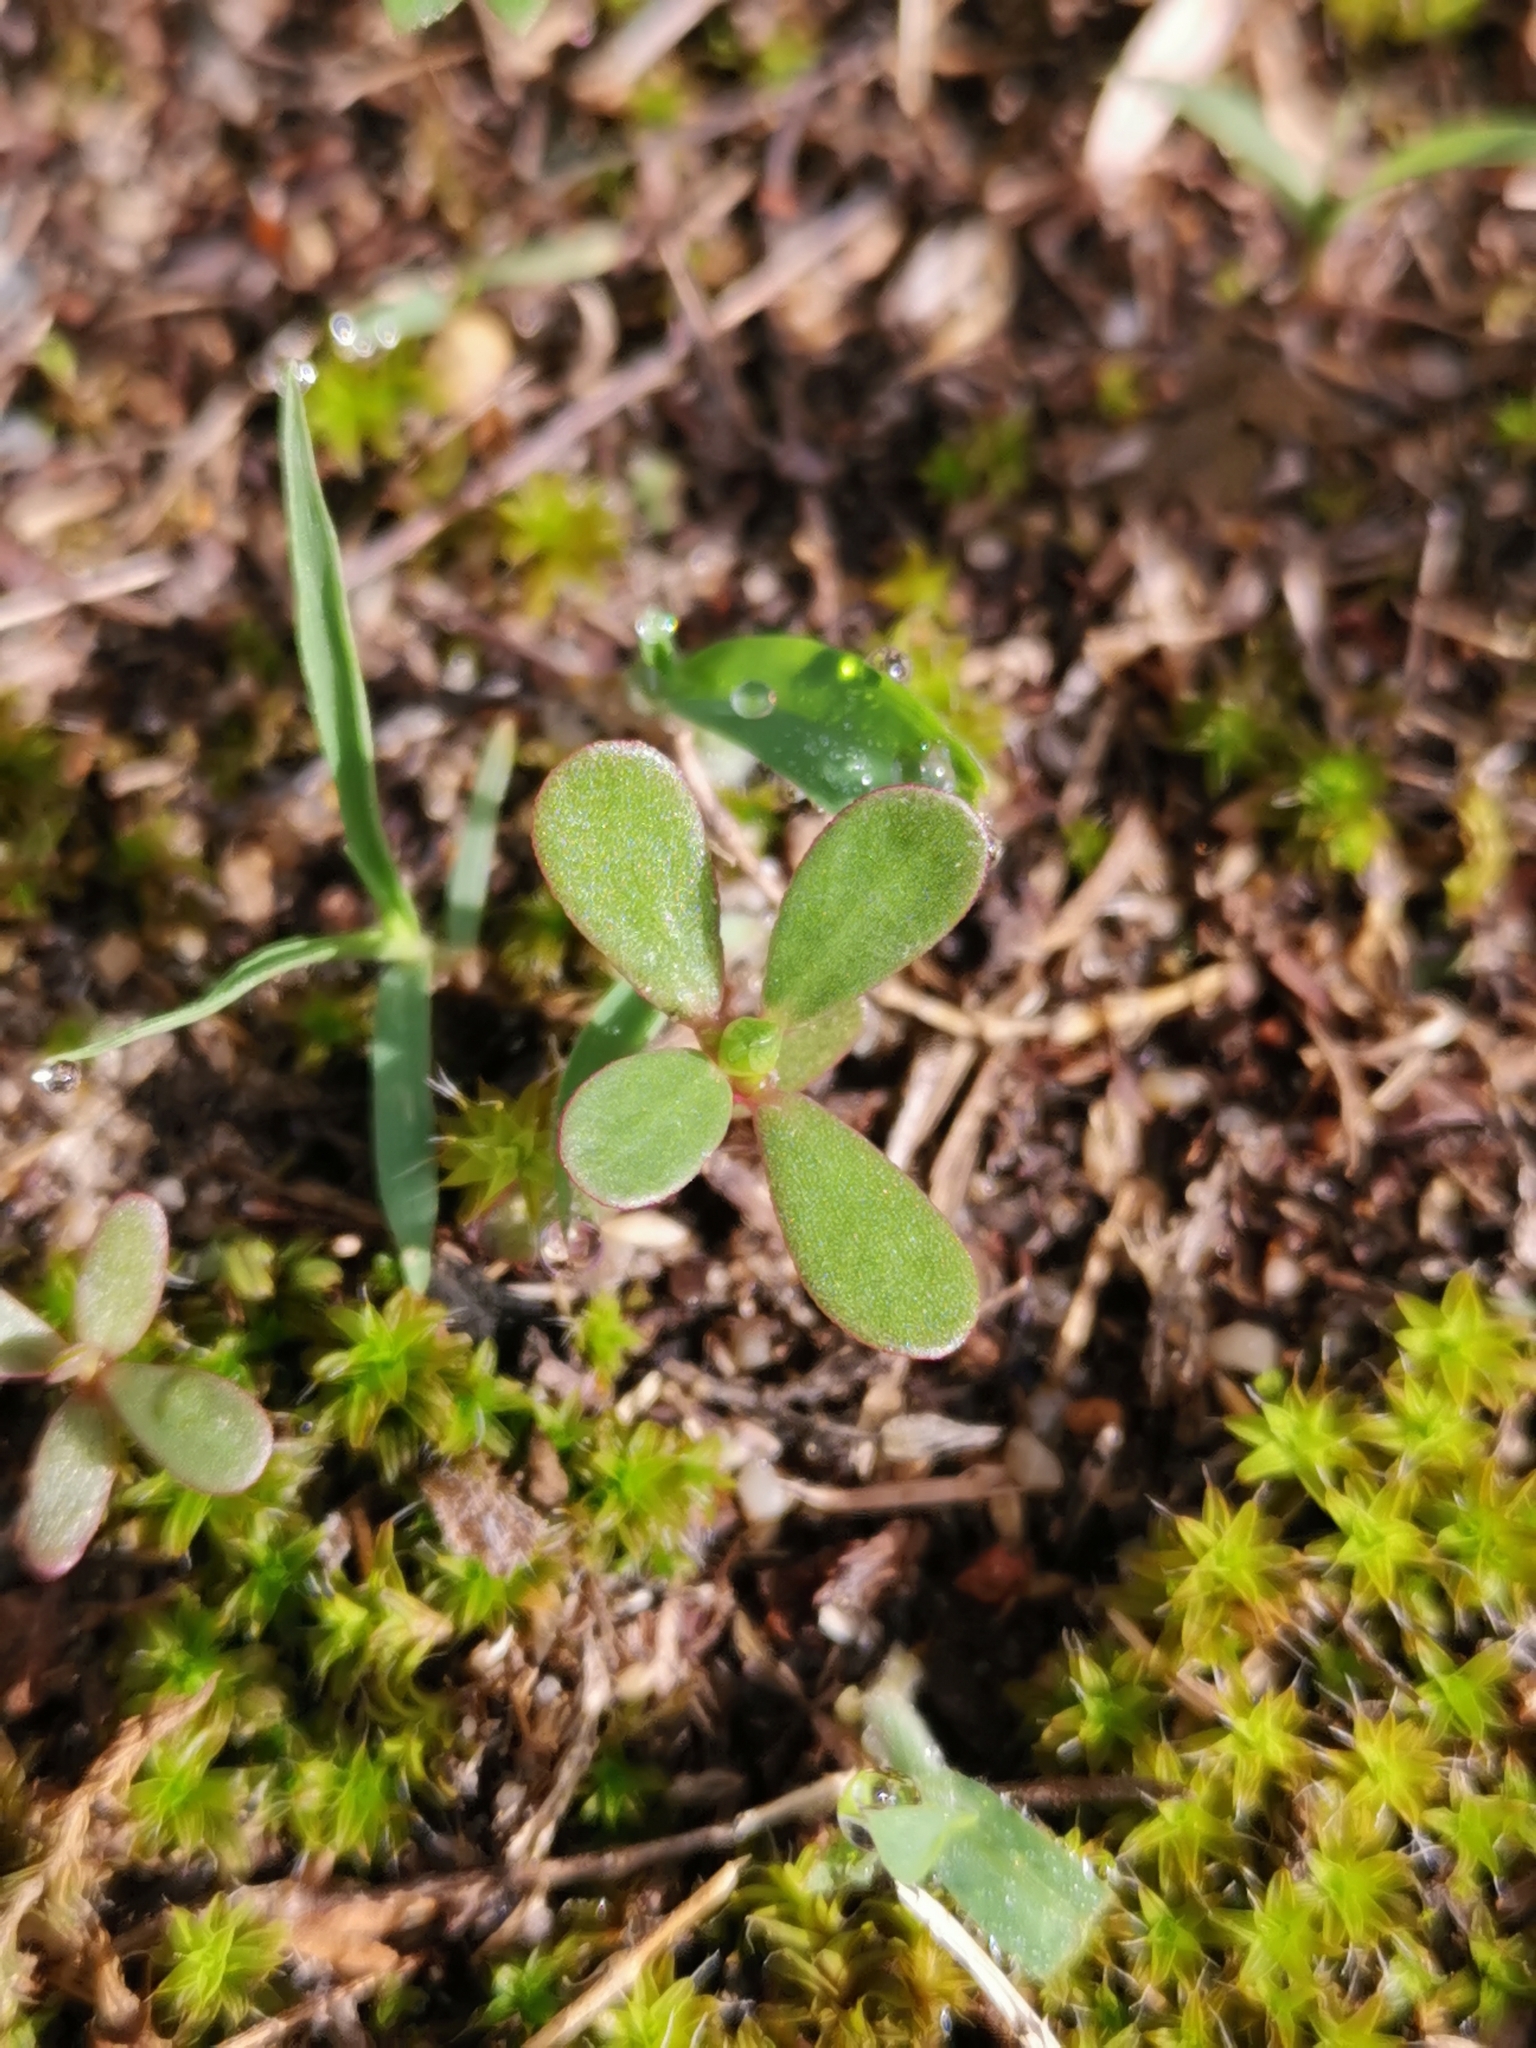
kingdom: Plantae
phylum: Tracheophyta
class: Magnoliopsida
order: Caryophyllales
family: Portulacaceae
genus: Portulaca
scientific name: Portulaca oleracea
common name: Common purslane
